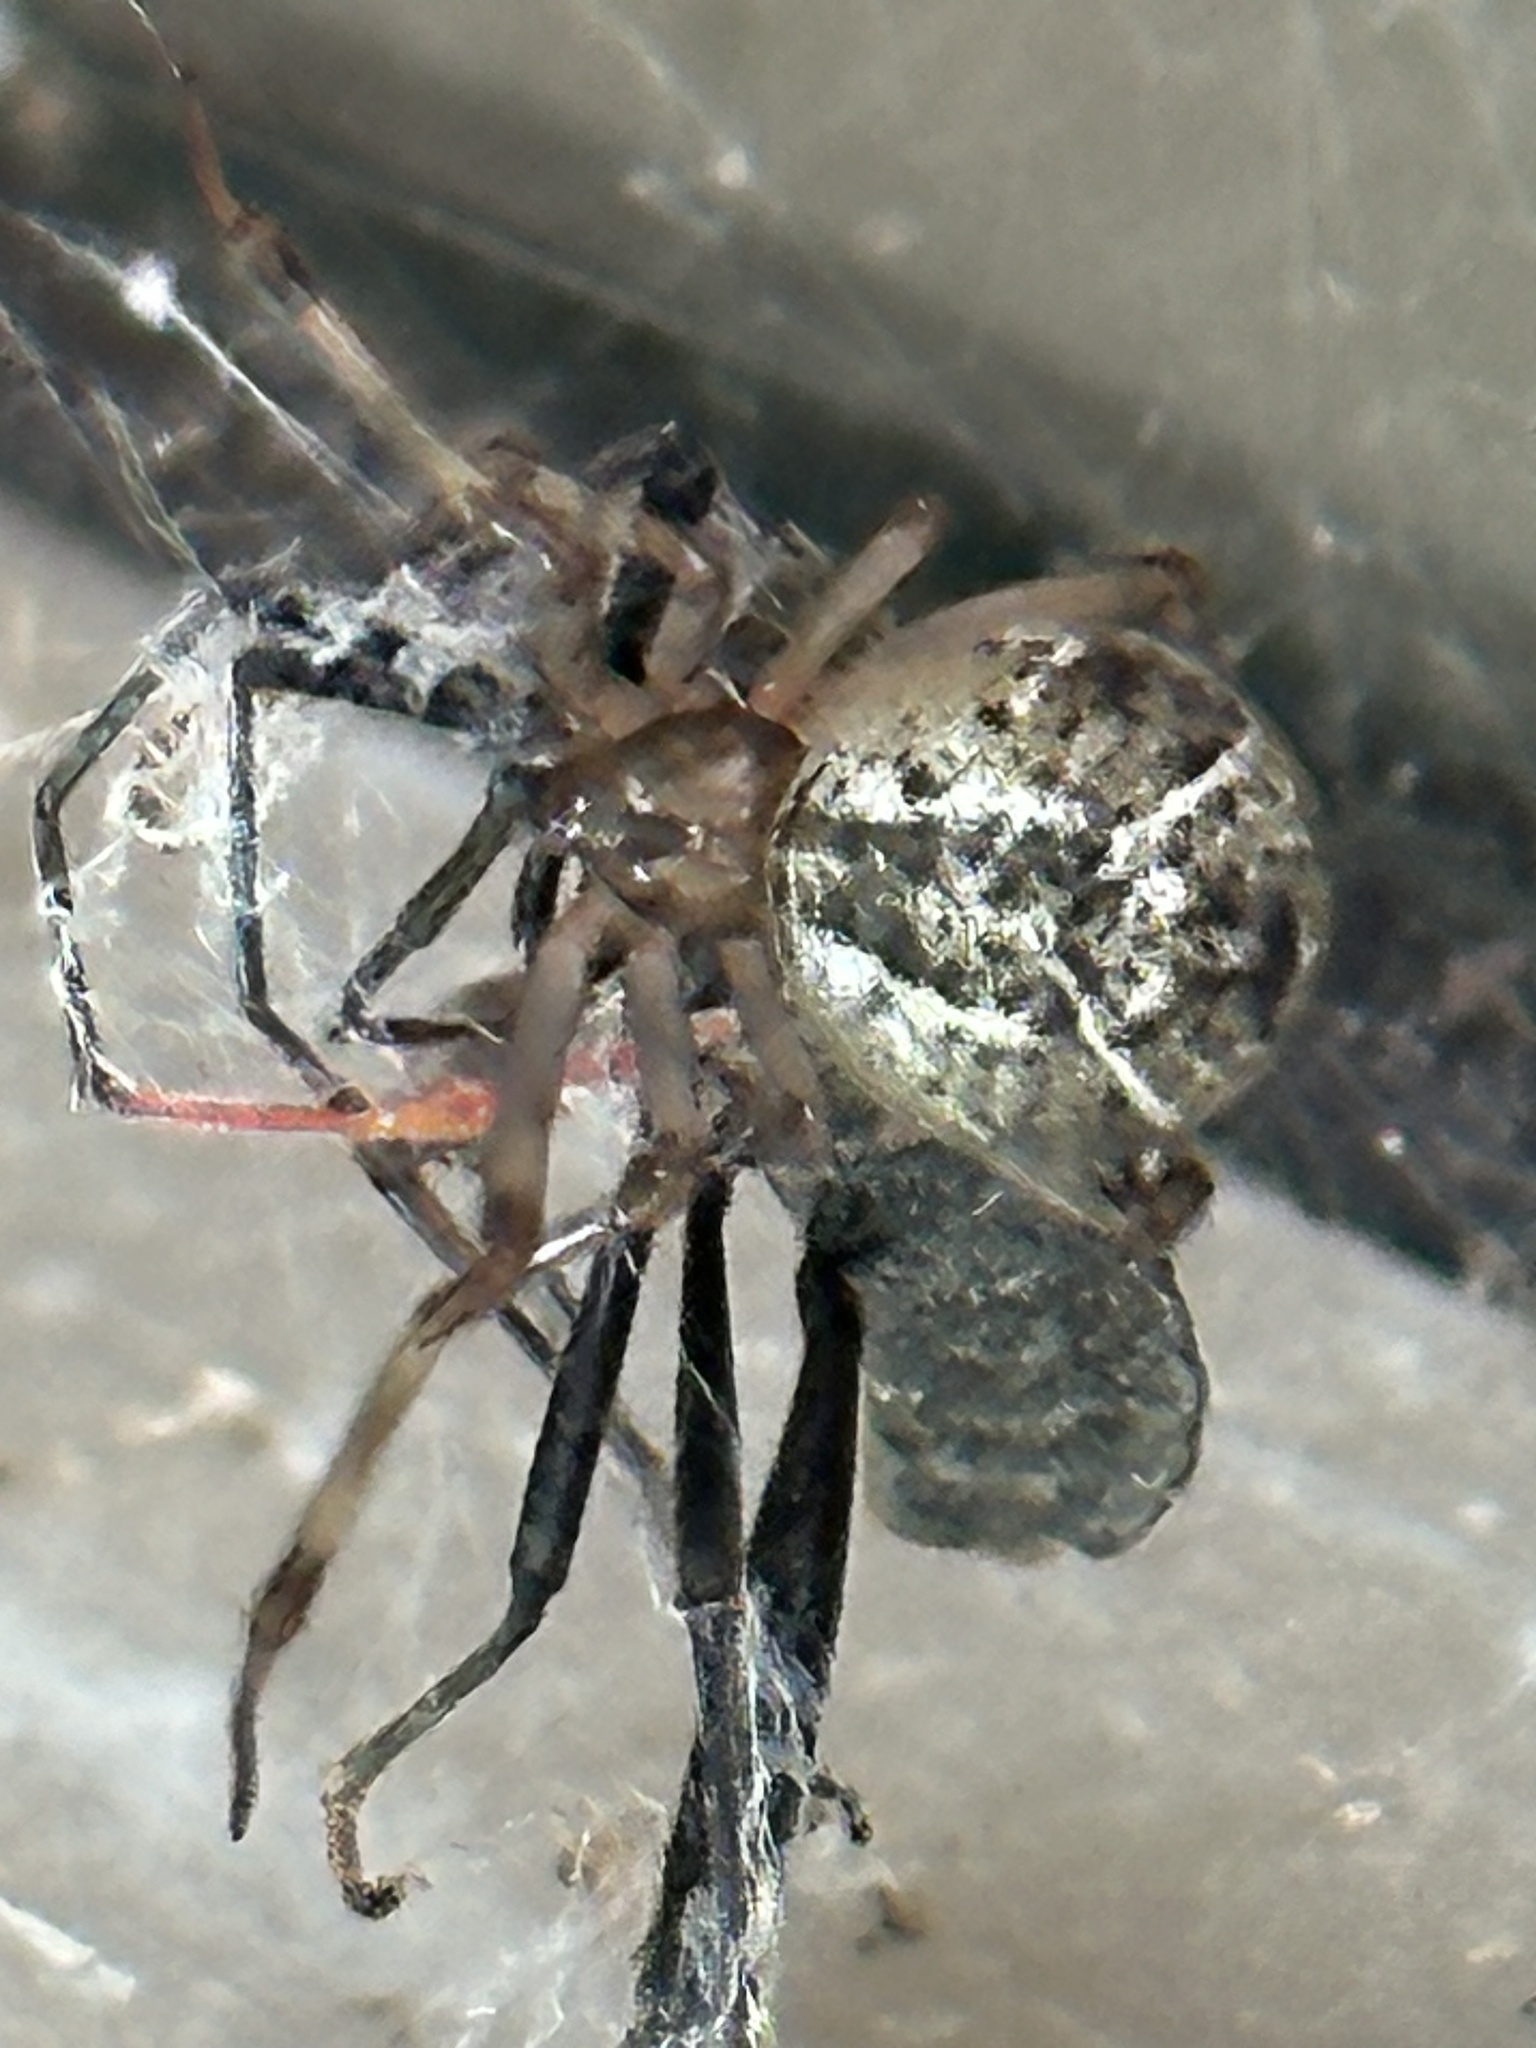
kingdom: Animalia
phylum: Arthropoda
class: Arachnida
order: Araneae
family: Theridiidae
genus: Parasteatoda
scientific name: Parasteatoda tepidariorum
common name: Common house spider
